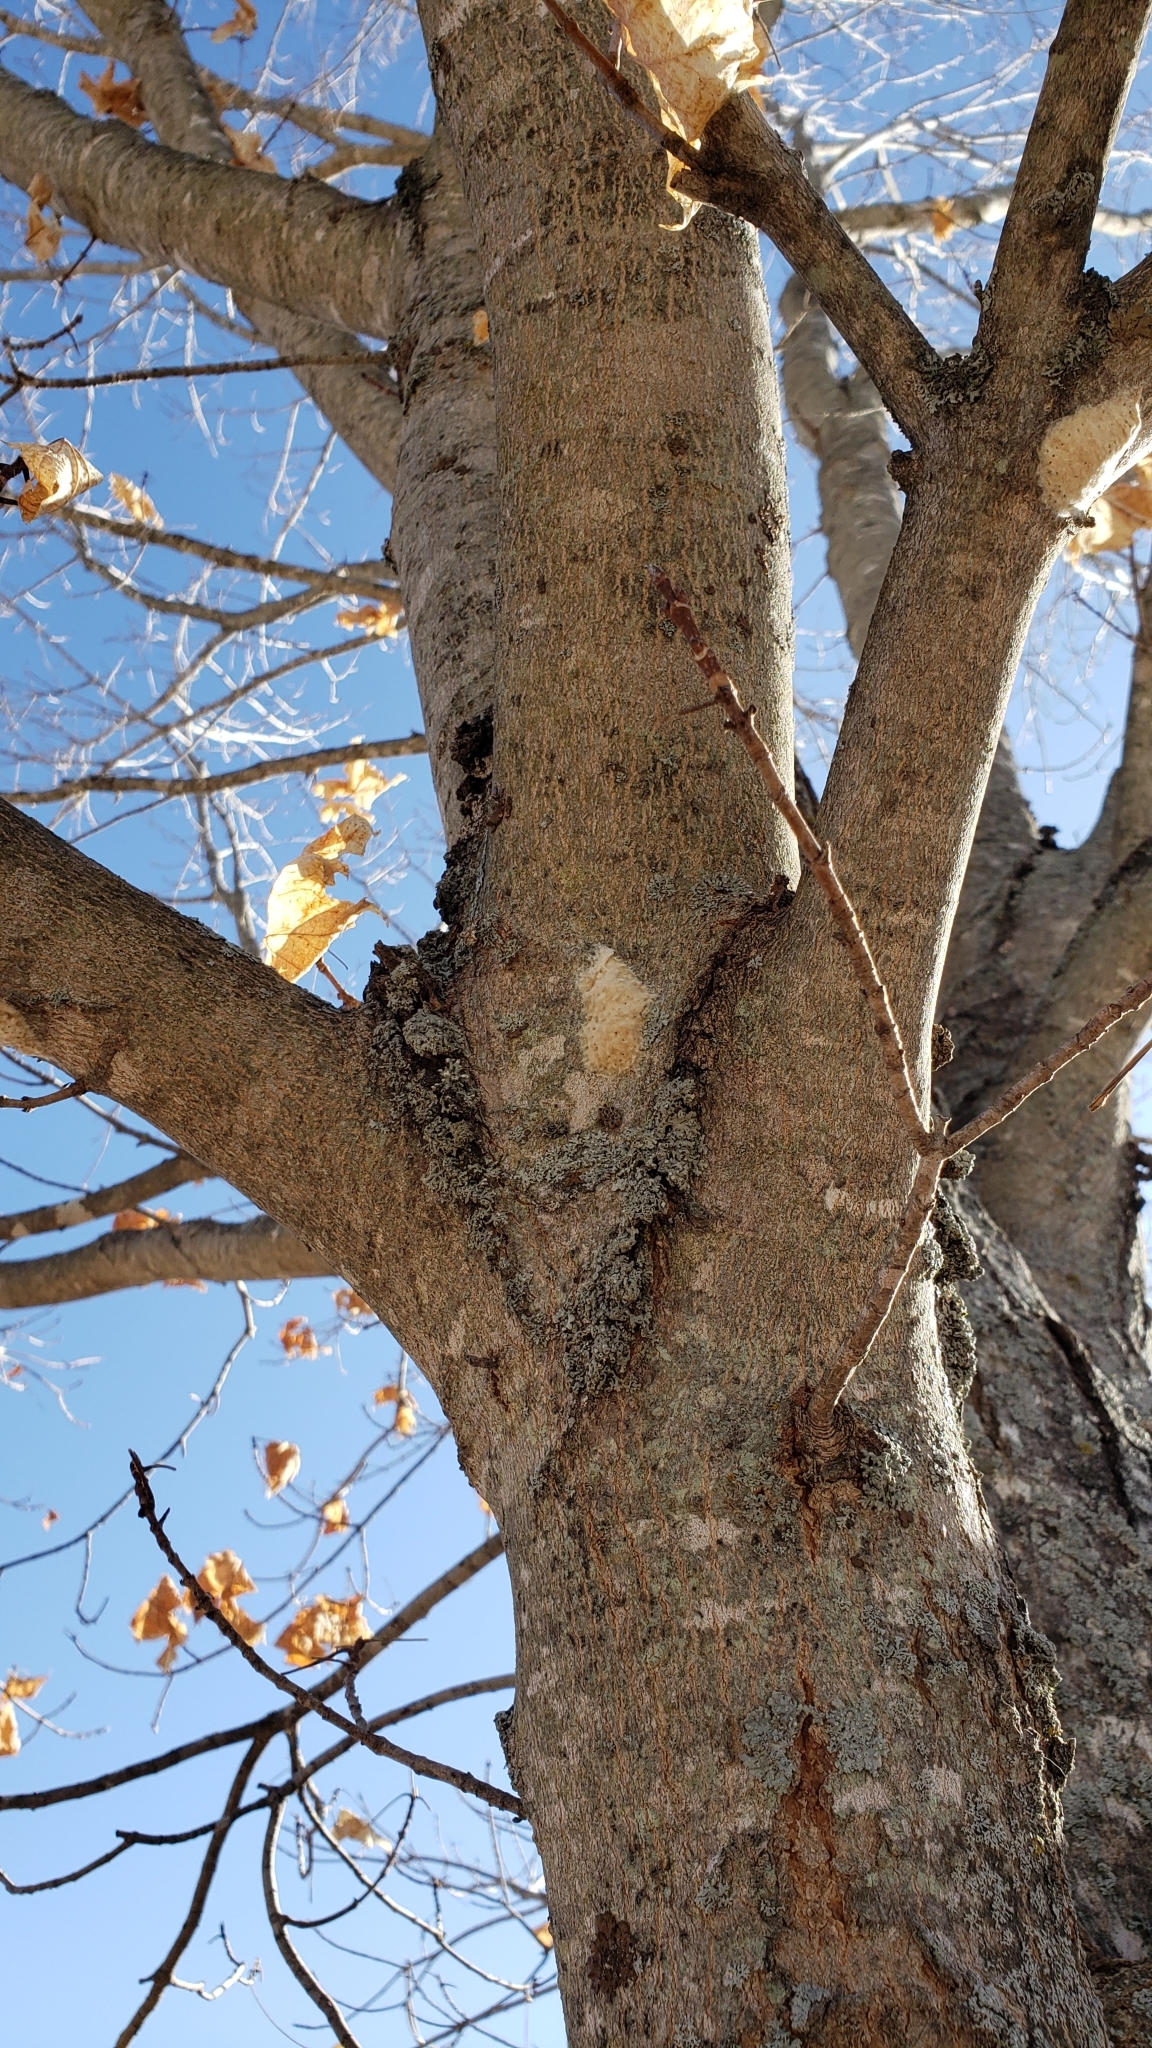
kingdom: Animalia
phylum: Arthropoda
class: Insecta
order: Lepidoptera
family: Erebidae
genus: Lymantria
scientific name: Lymantria dispar
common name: Gypsy moth
